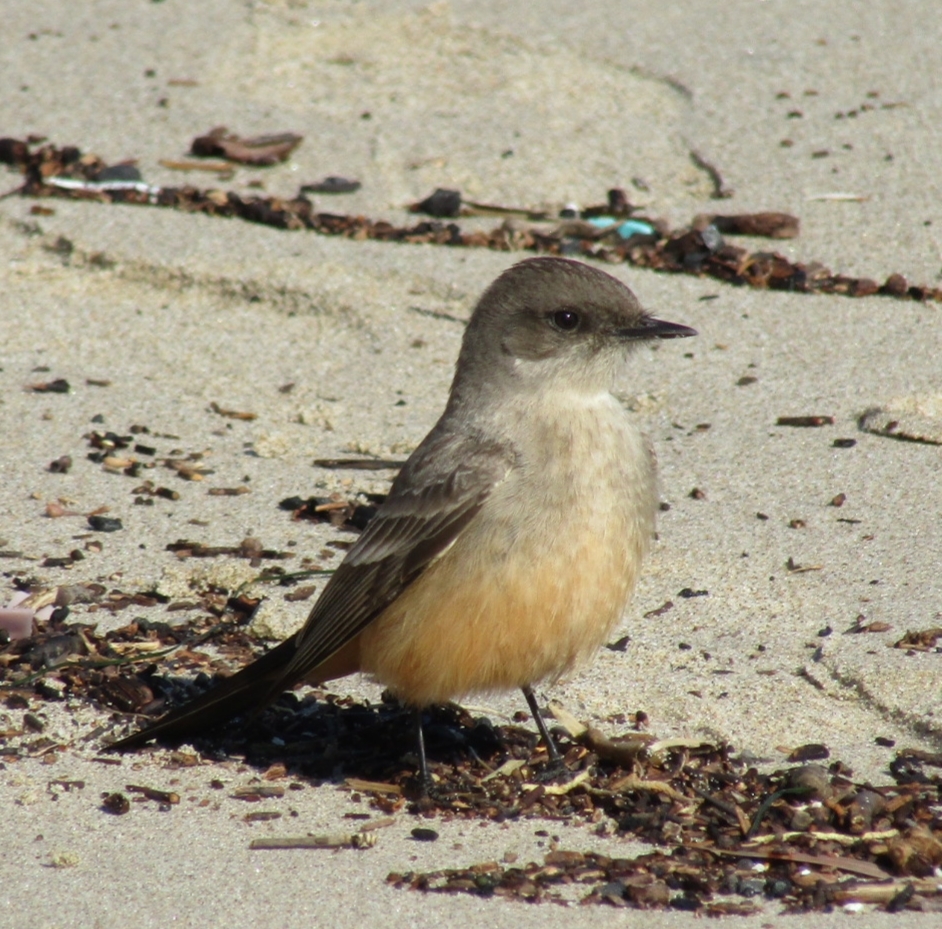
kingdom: Animalia
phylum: Chordata
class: Aves
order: Passeriformes
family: Tyrannidae
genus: Sayornis
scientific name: Sayornis saya
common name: Say's phoebe
